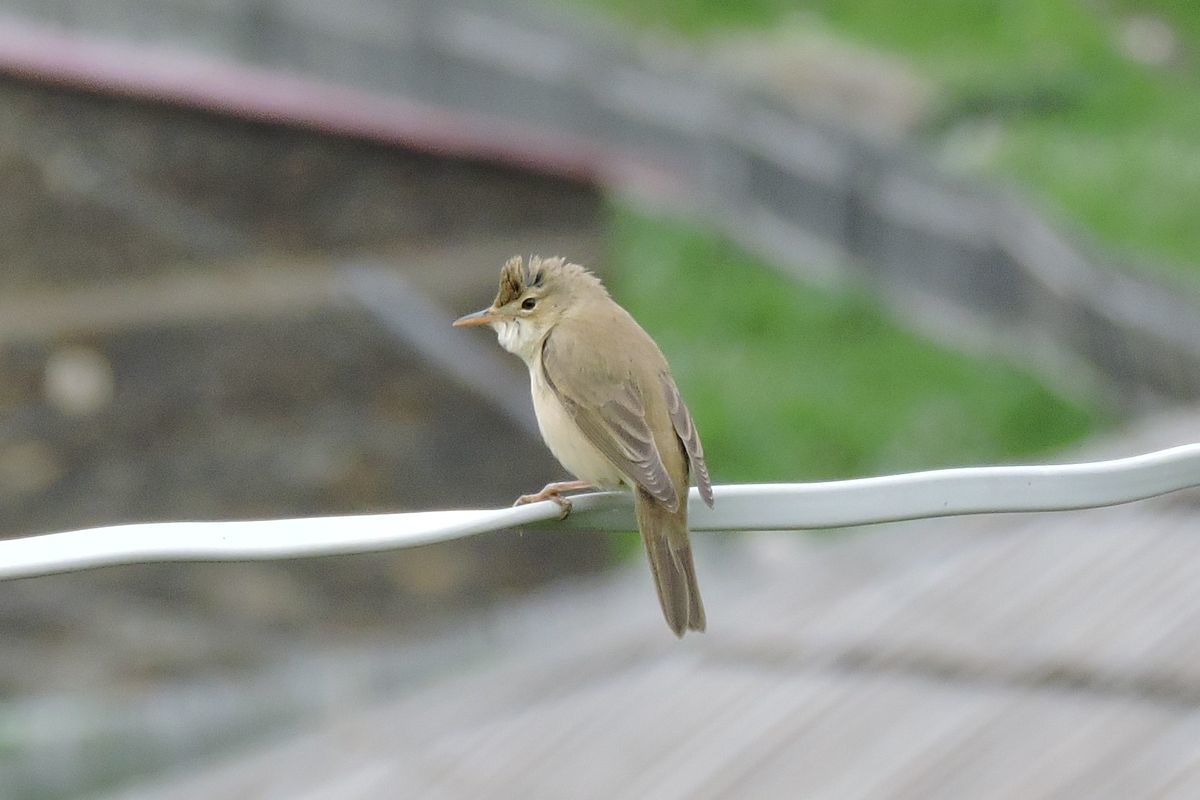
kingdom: Animalia
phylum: Chordata
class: Aves
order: Passeriformes
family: Acrocephalidae
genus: Acrocephalus
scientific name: Acrocephalus palustris
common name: Marsh warbler
